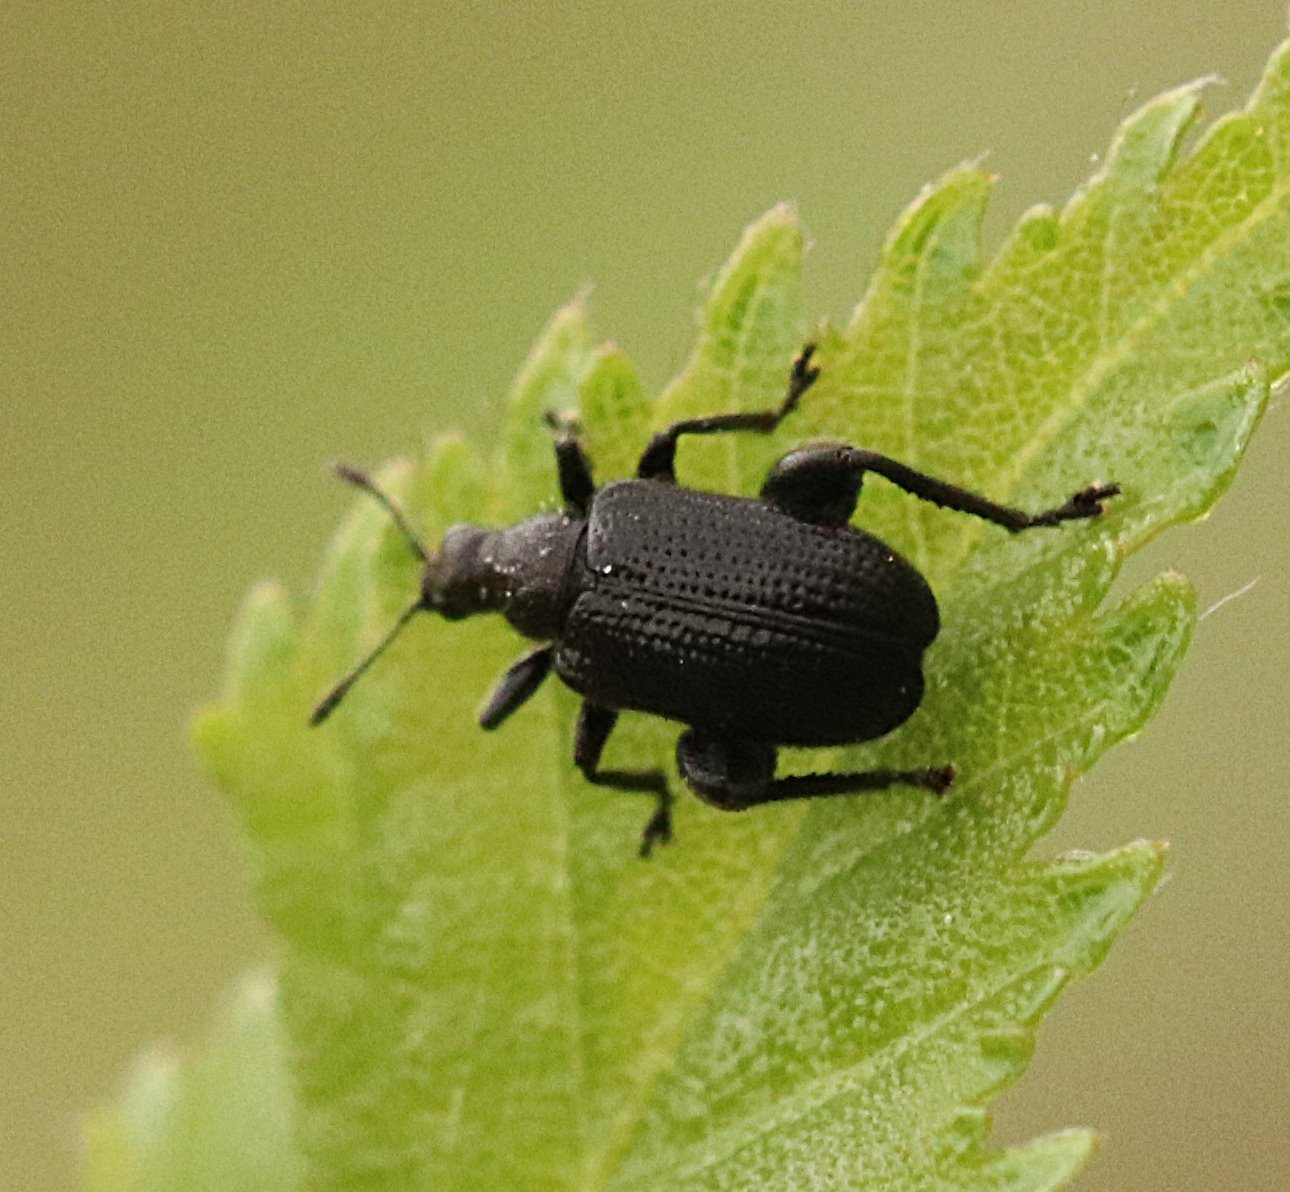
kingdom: Animalia
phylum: Arthropoda
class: Insecta
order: Coleoptera
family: Attelabidae
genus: Deporaus
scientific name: Deporaus betulae
